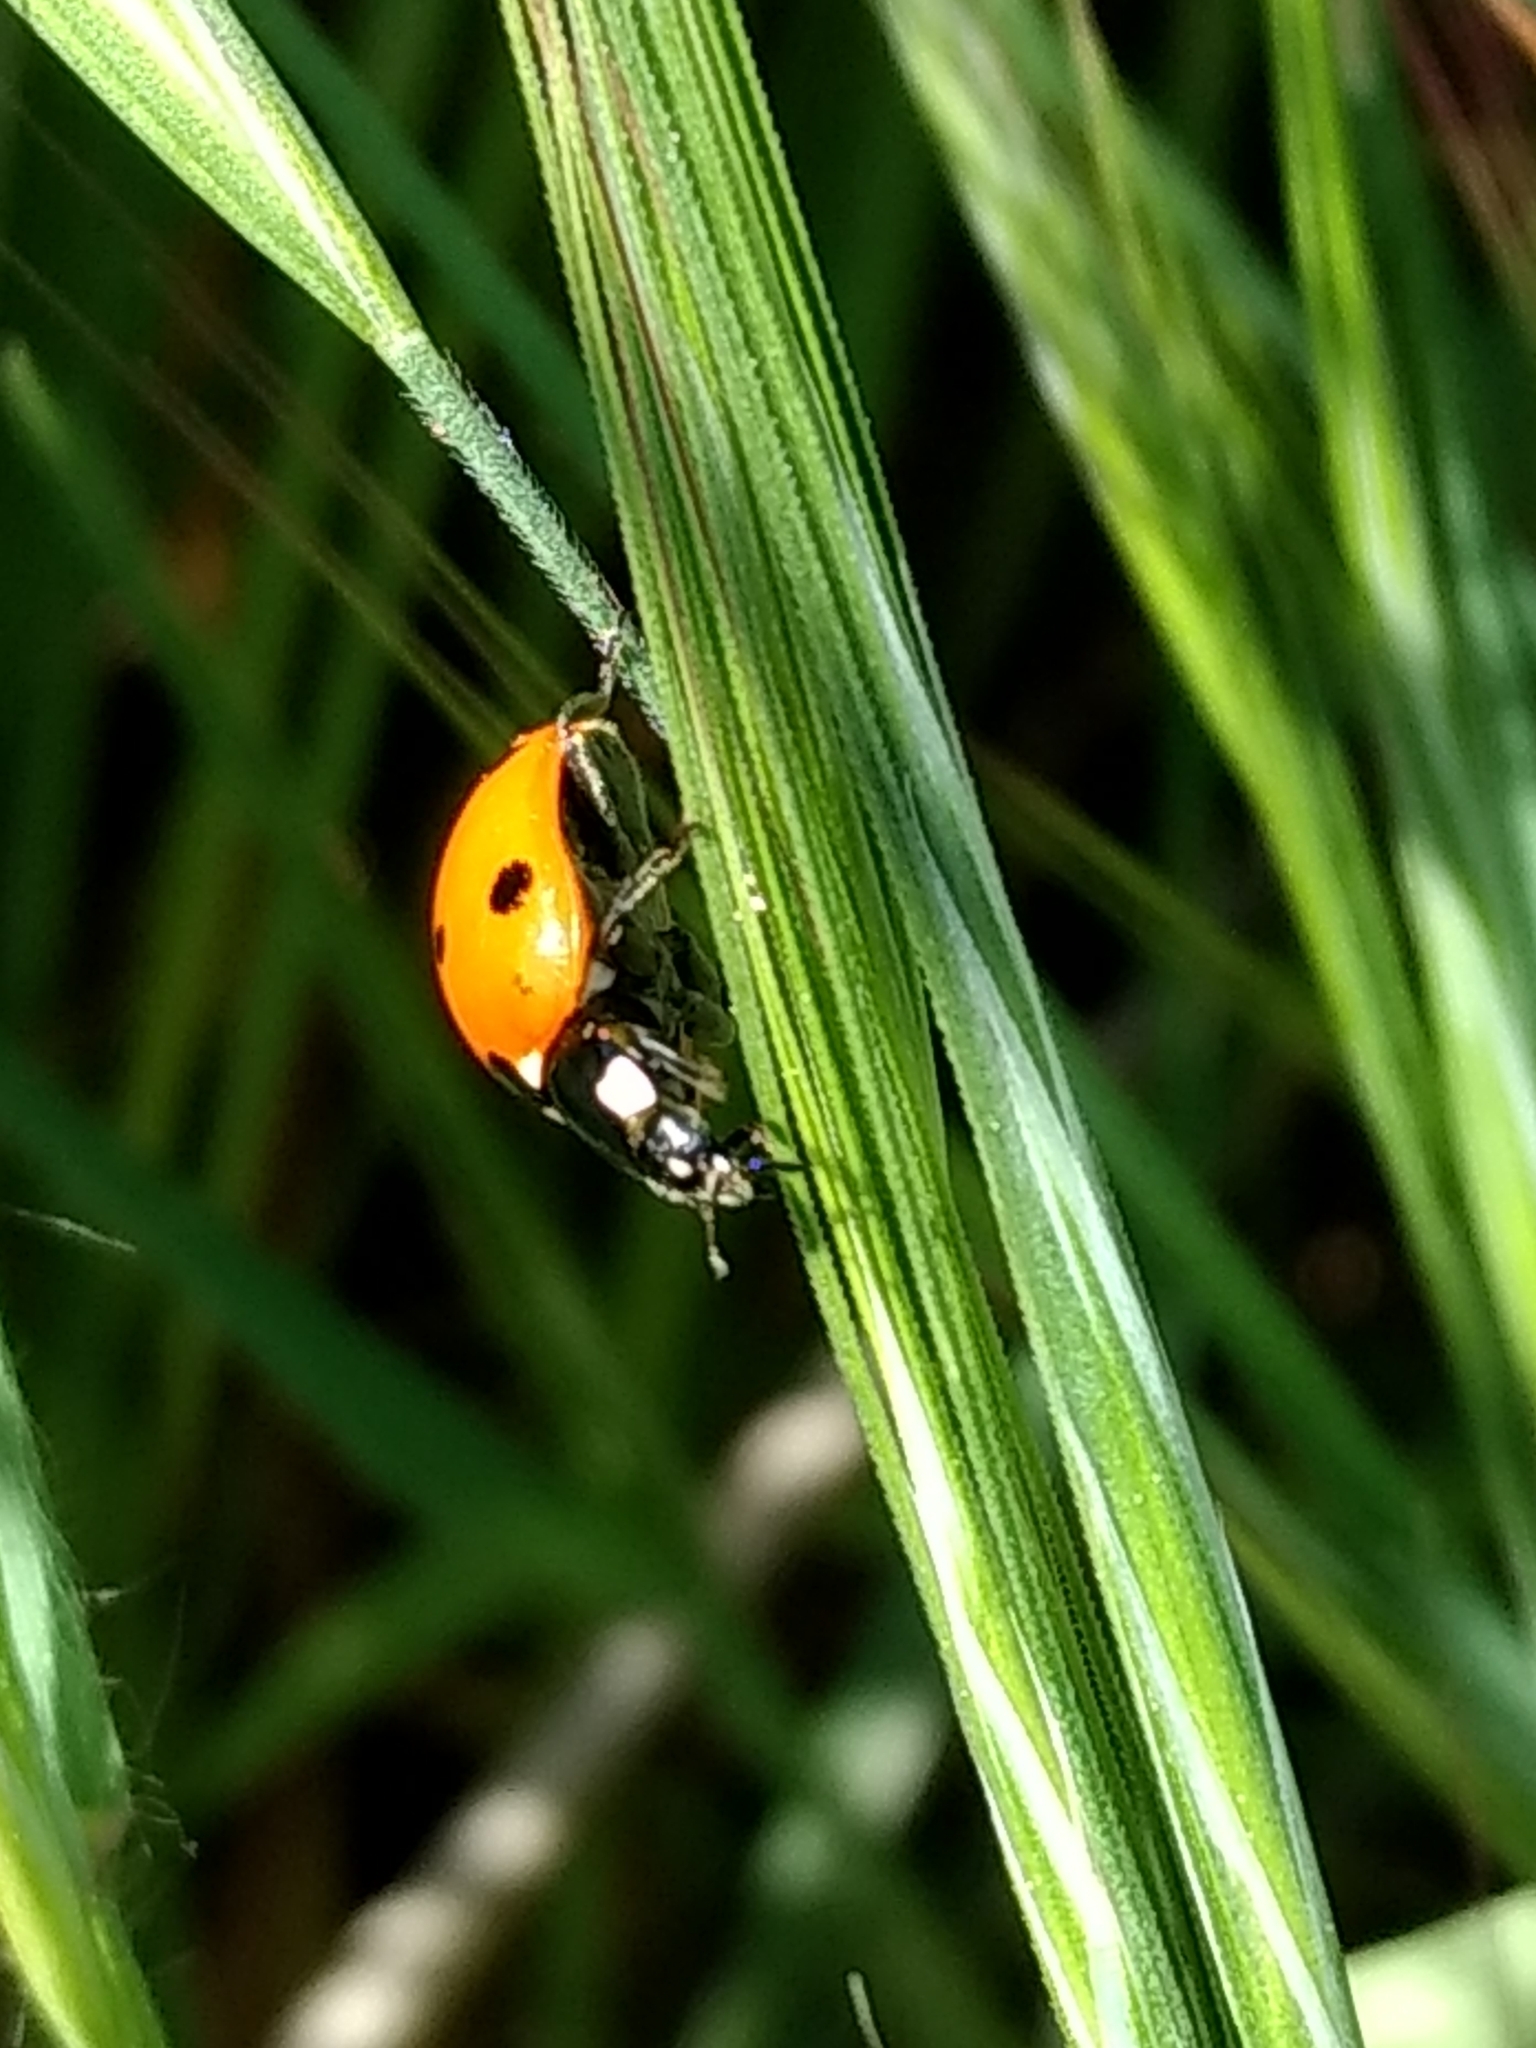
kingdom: Animalia
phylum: Arthropoda
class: Insecta
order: Coleoptera
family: Coccinellidae
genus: Coccinella
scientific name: Coccinella septempunctata
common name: Sevenspotted lady beetle
